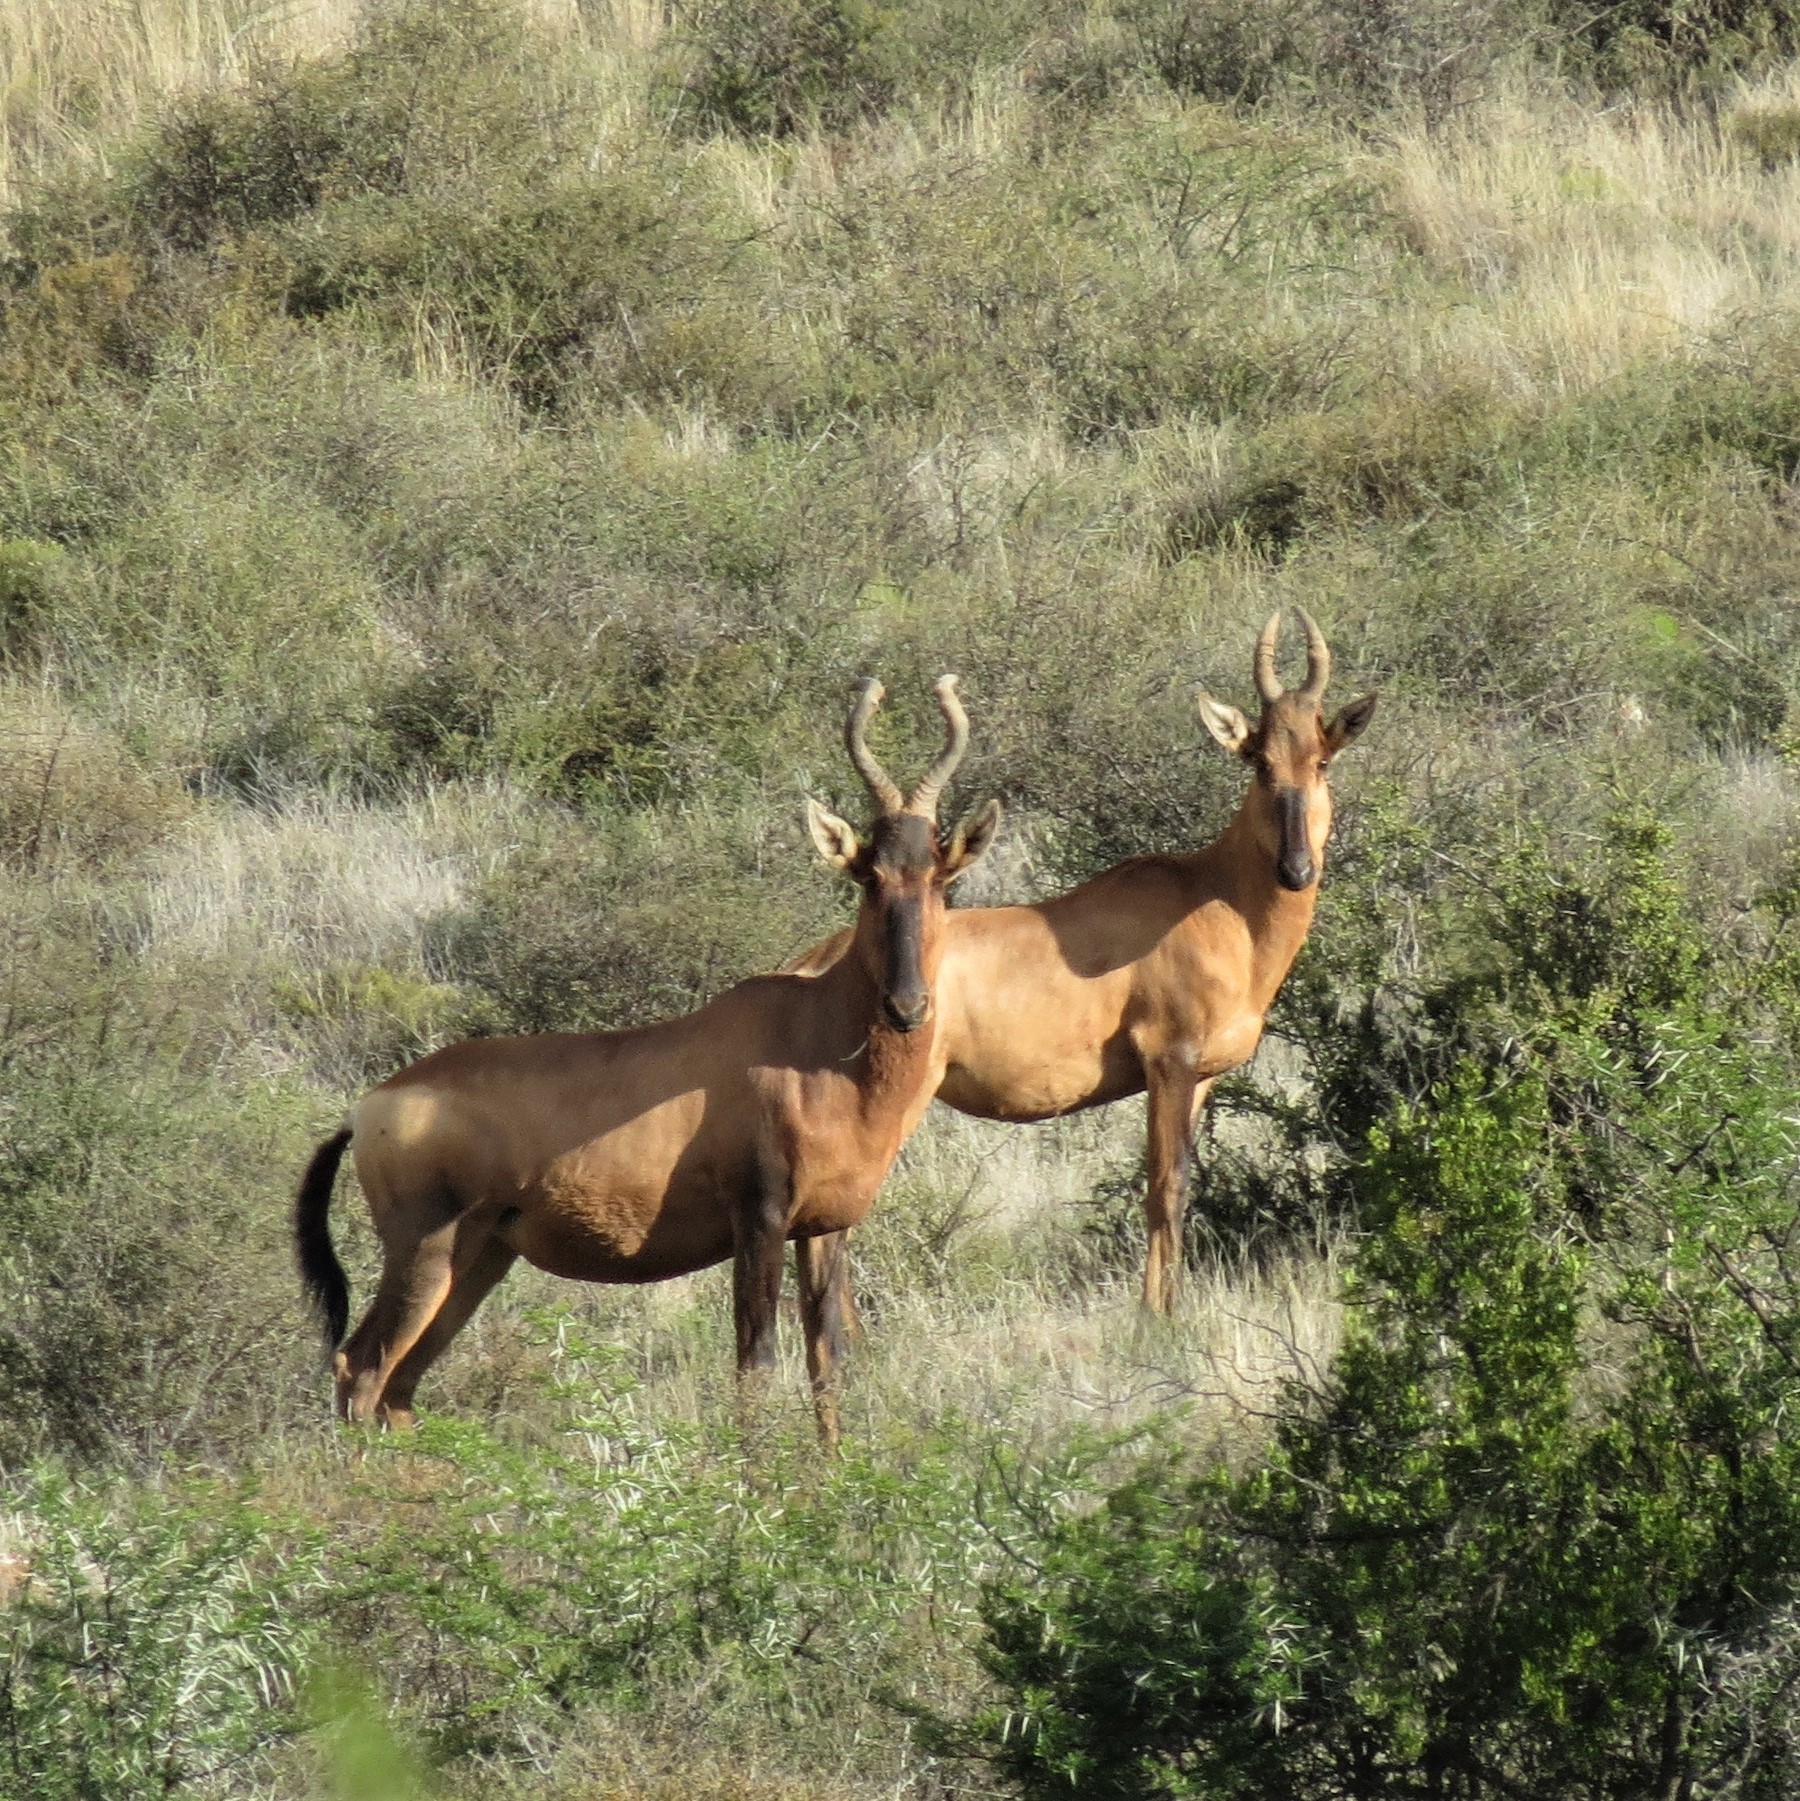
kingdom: Animalia
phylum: Chordata
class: Mammalia
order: Artiodactyla
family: Bovidae
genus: Alcelaphus
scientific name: Alcelaphus caama
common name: Red hartebeest
